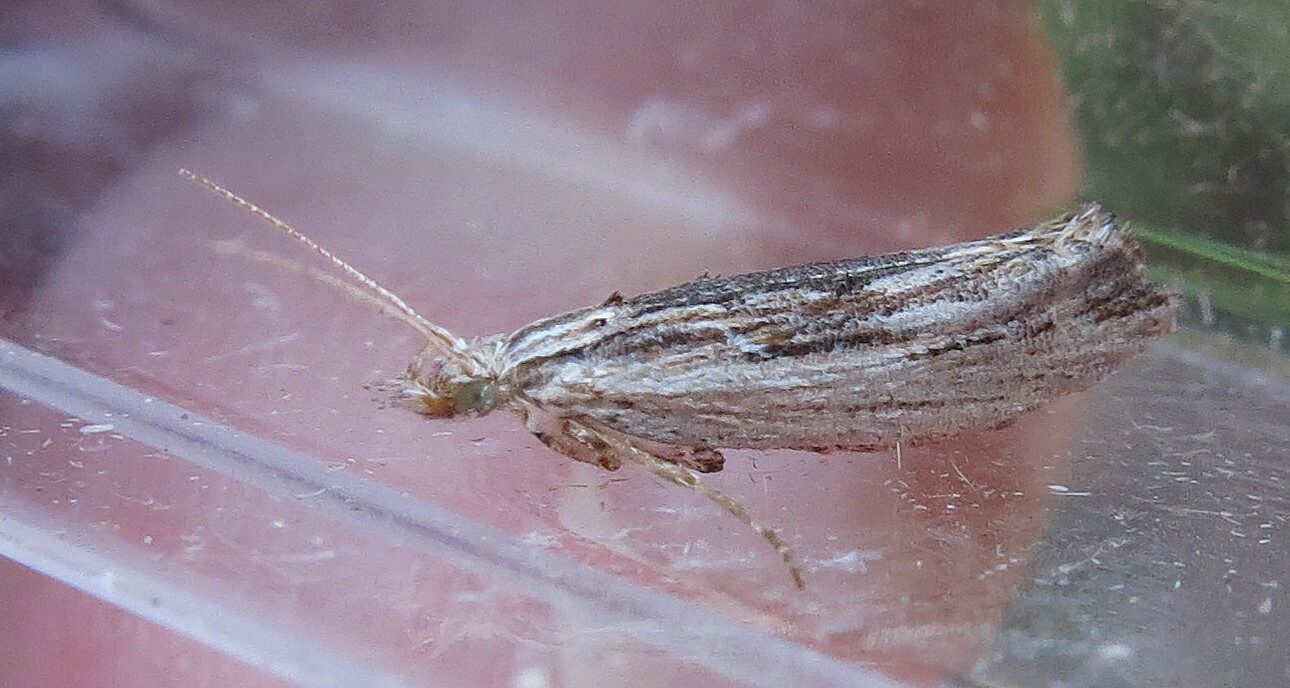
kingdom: Animalia
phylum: Arthropoda
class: Insecta
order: Lepidoptera
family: Ypsolophidae
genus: Ypsolopha
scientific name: Ypsolopha scabrella
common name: Wainscot smudge
